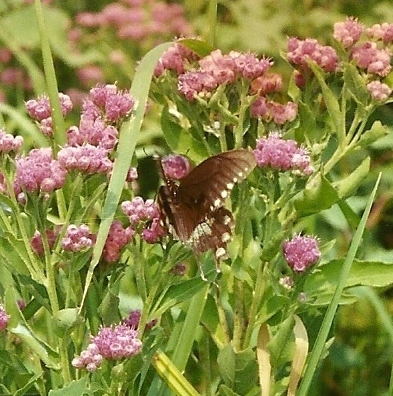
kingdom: Animalia
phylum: Arthropoda
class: Insecta
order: Lepidoptera
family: Papilionidae
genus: Papilio
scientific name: Papilio troilus
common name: Spicebush swallowtail
